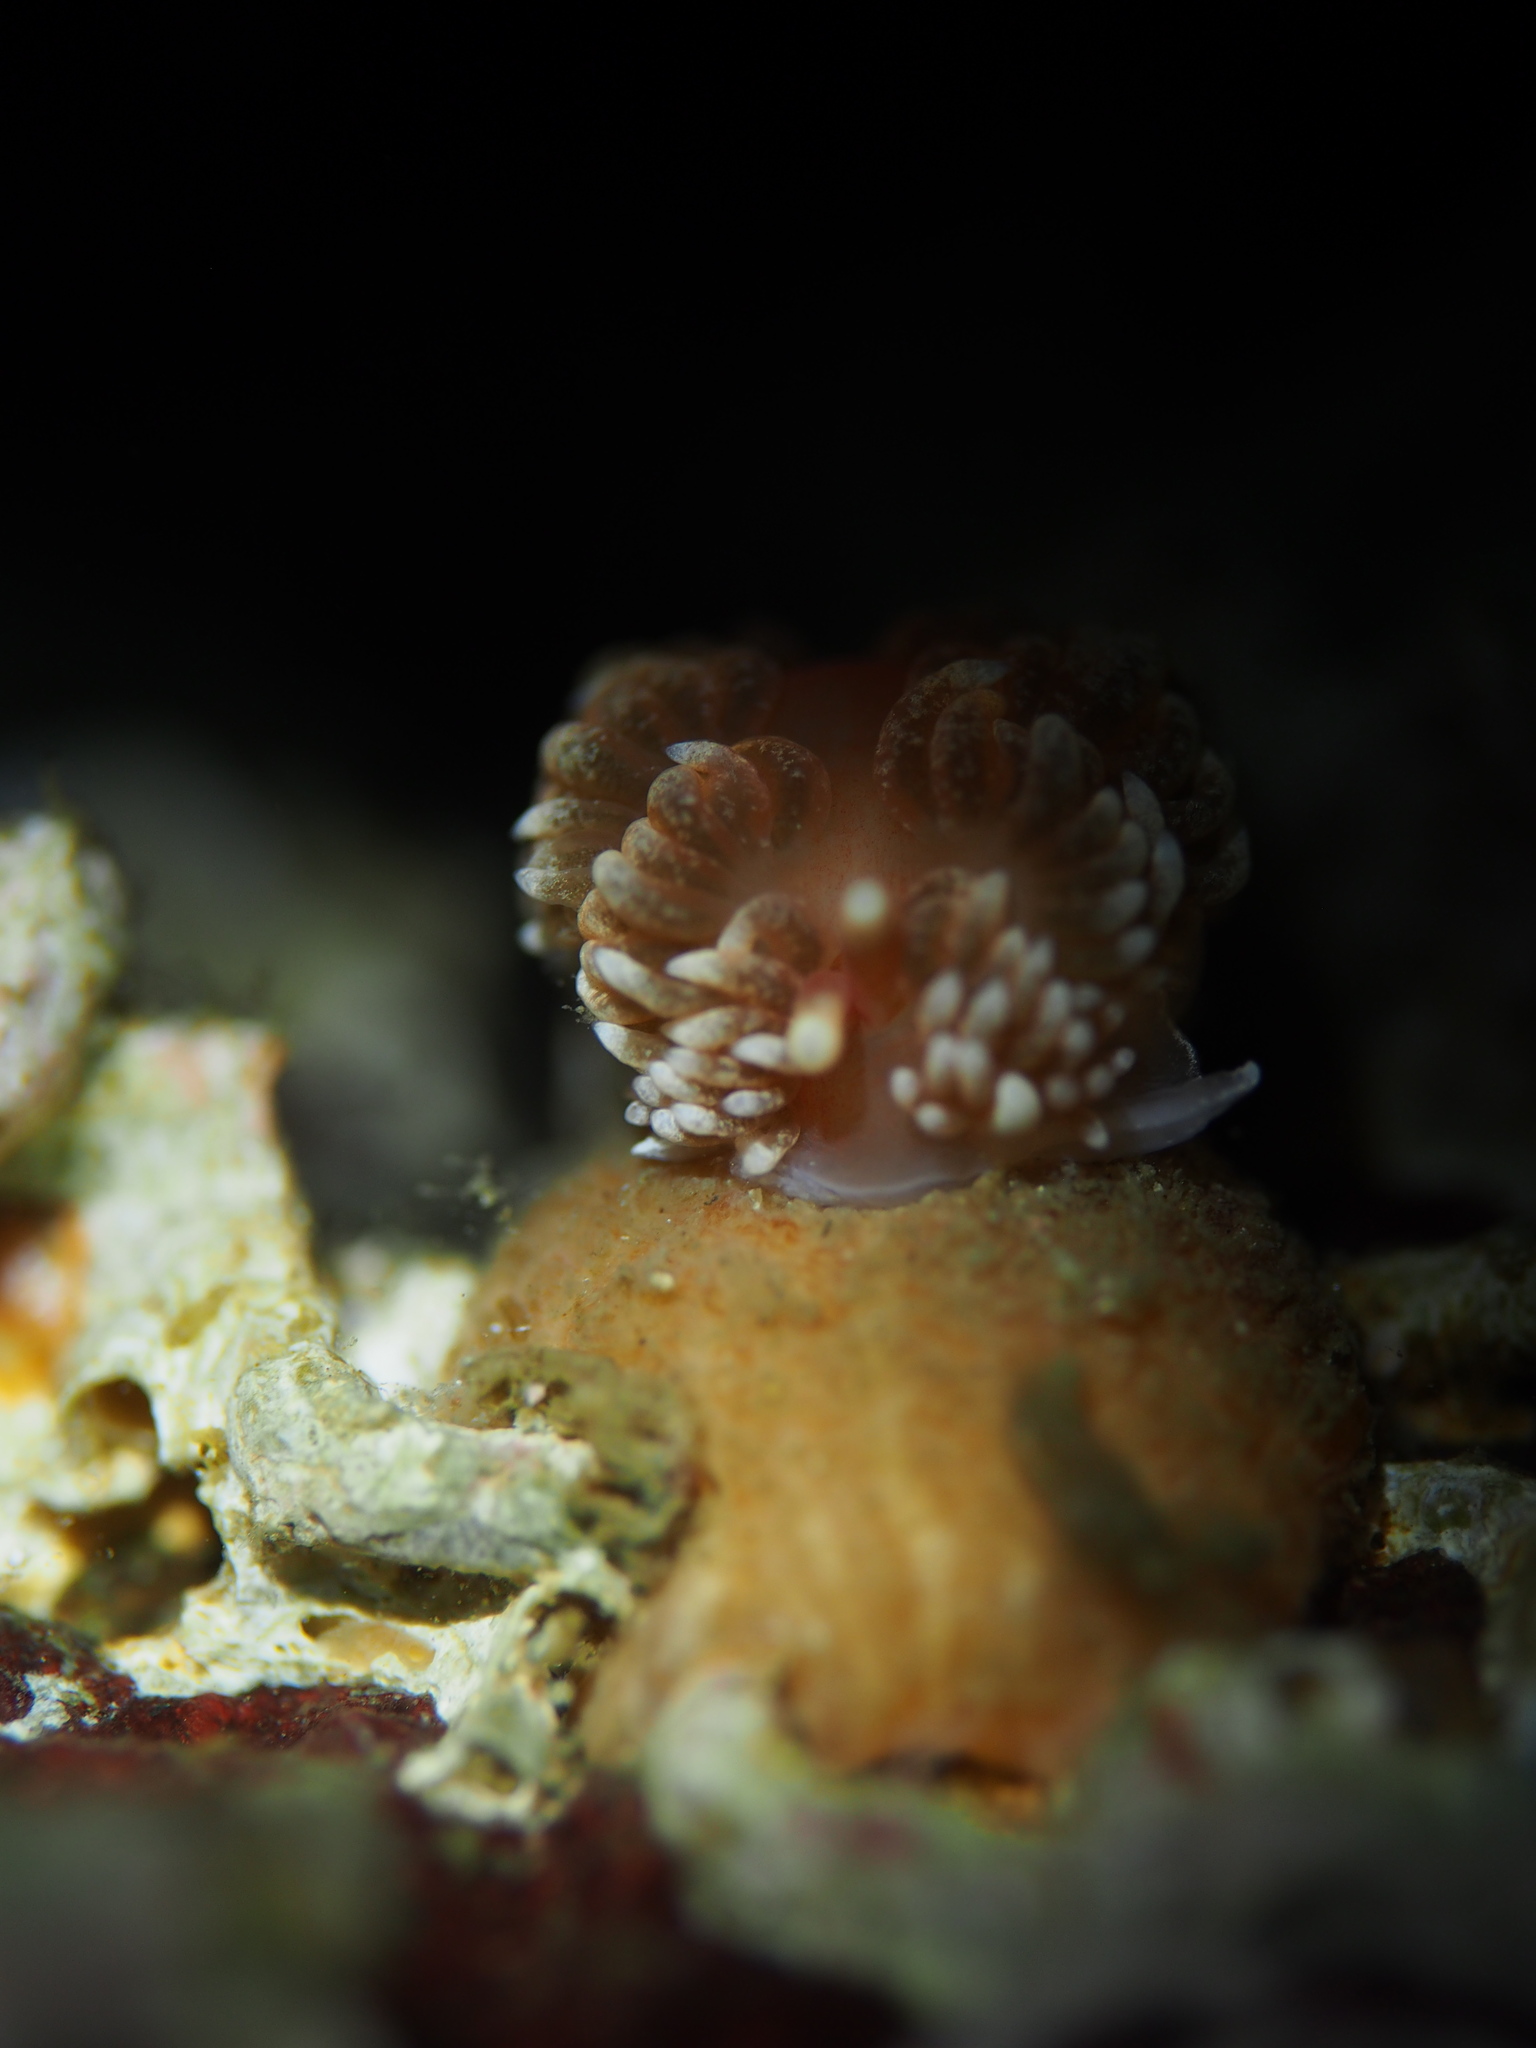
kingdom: Animalia
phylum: Mollusca
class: Gastropoda
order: Nudibranchia
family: Aeolidiidae
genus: Aeolidiella
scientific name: Aeolidiella glauca
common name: Orange-brown aeolid
